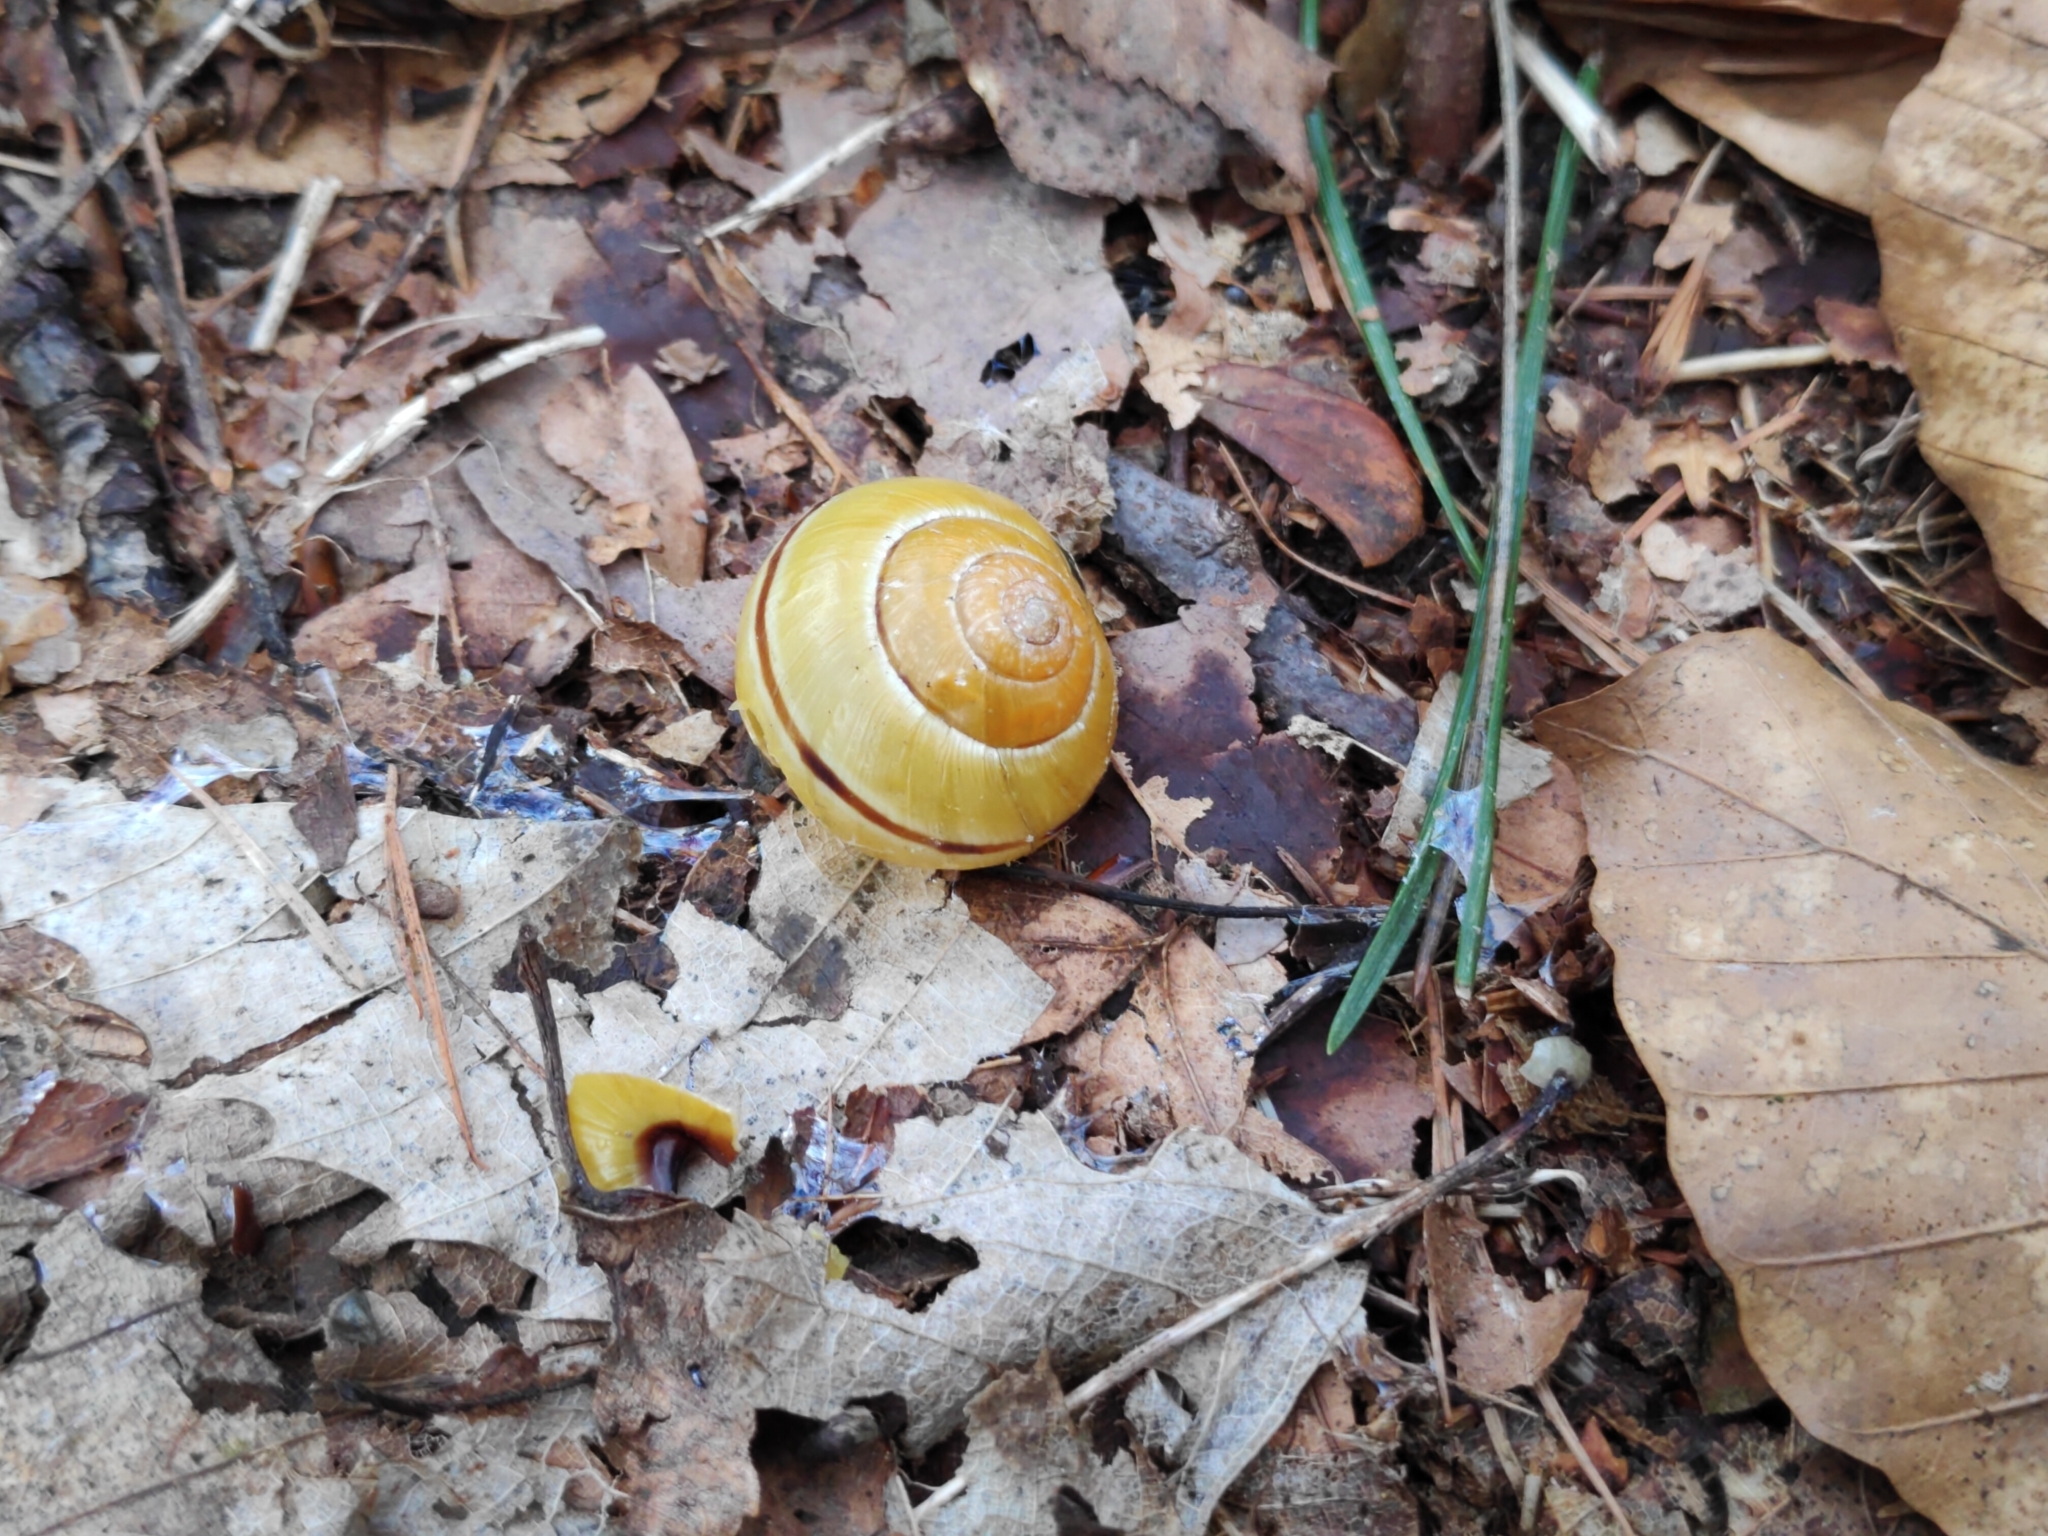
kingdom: Animalia
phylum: Mollusca
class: Gastropoda
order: Stylommatophora
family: Helicidae
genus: Cepaea
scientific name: Cepaea nemoralis
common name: Grovesnail
